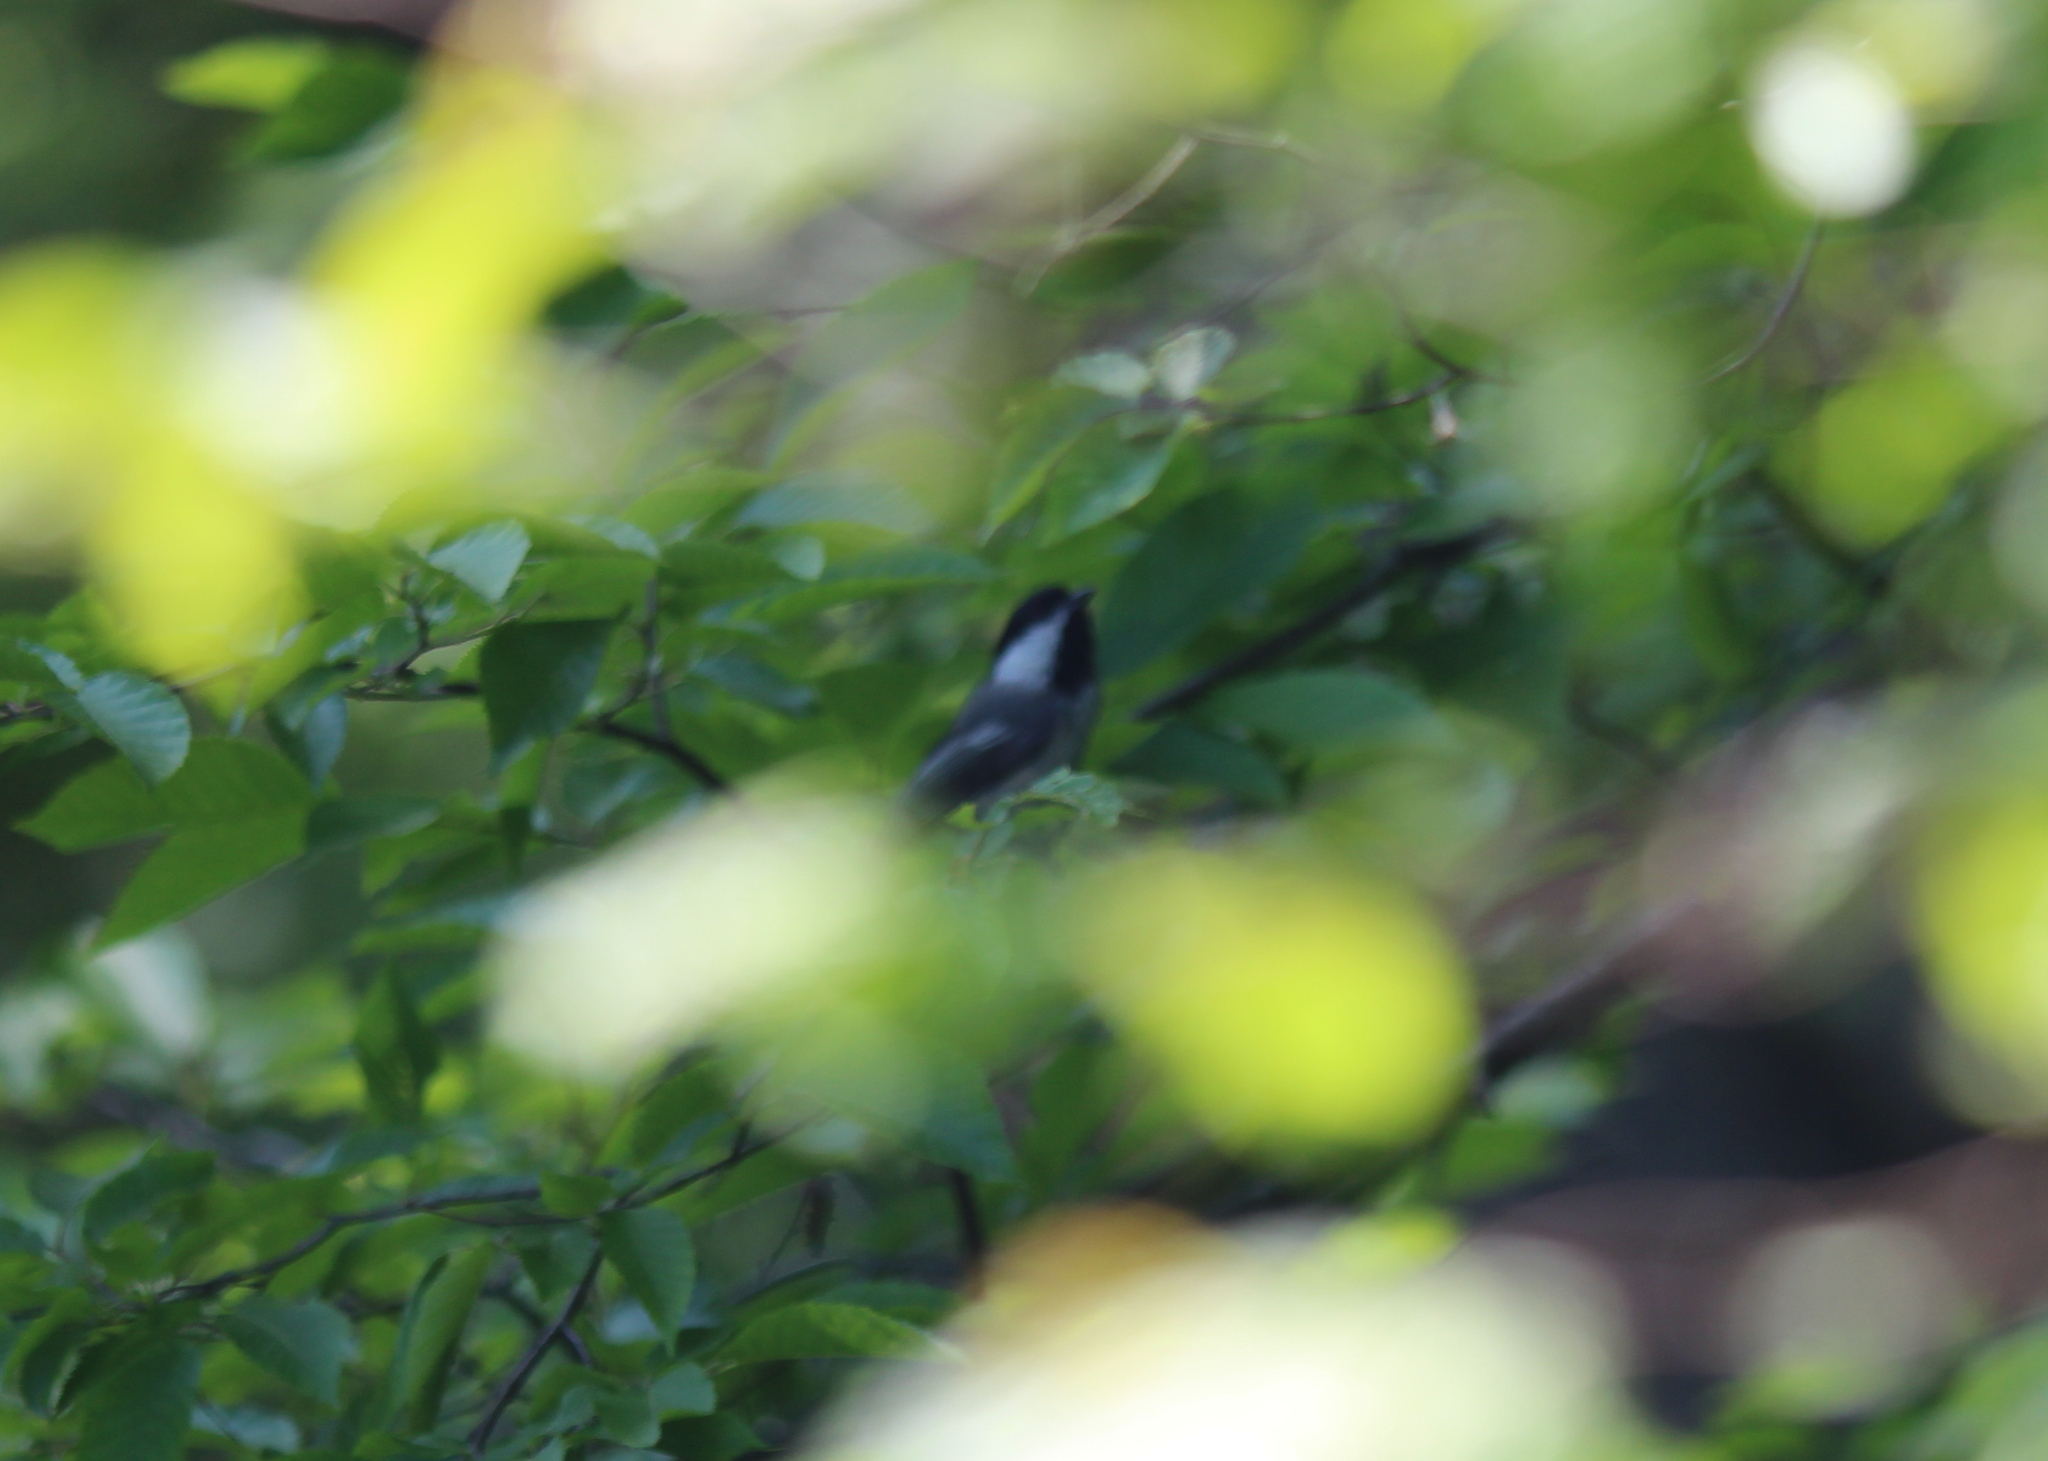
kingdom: Animalia
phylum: Chordata
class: Aves
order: Passeriformes
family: Paridae
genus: Poecile
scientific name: Poecile atricapillus
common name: Black-capped chickadee
